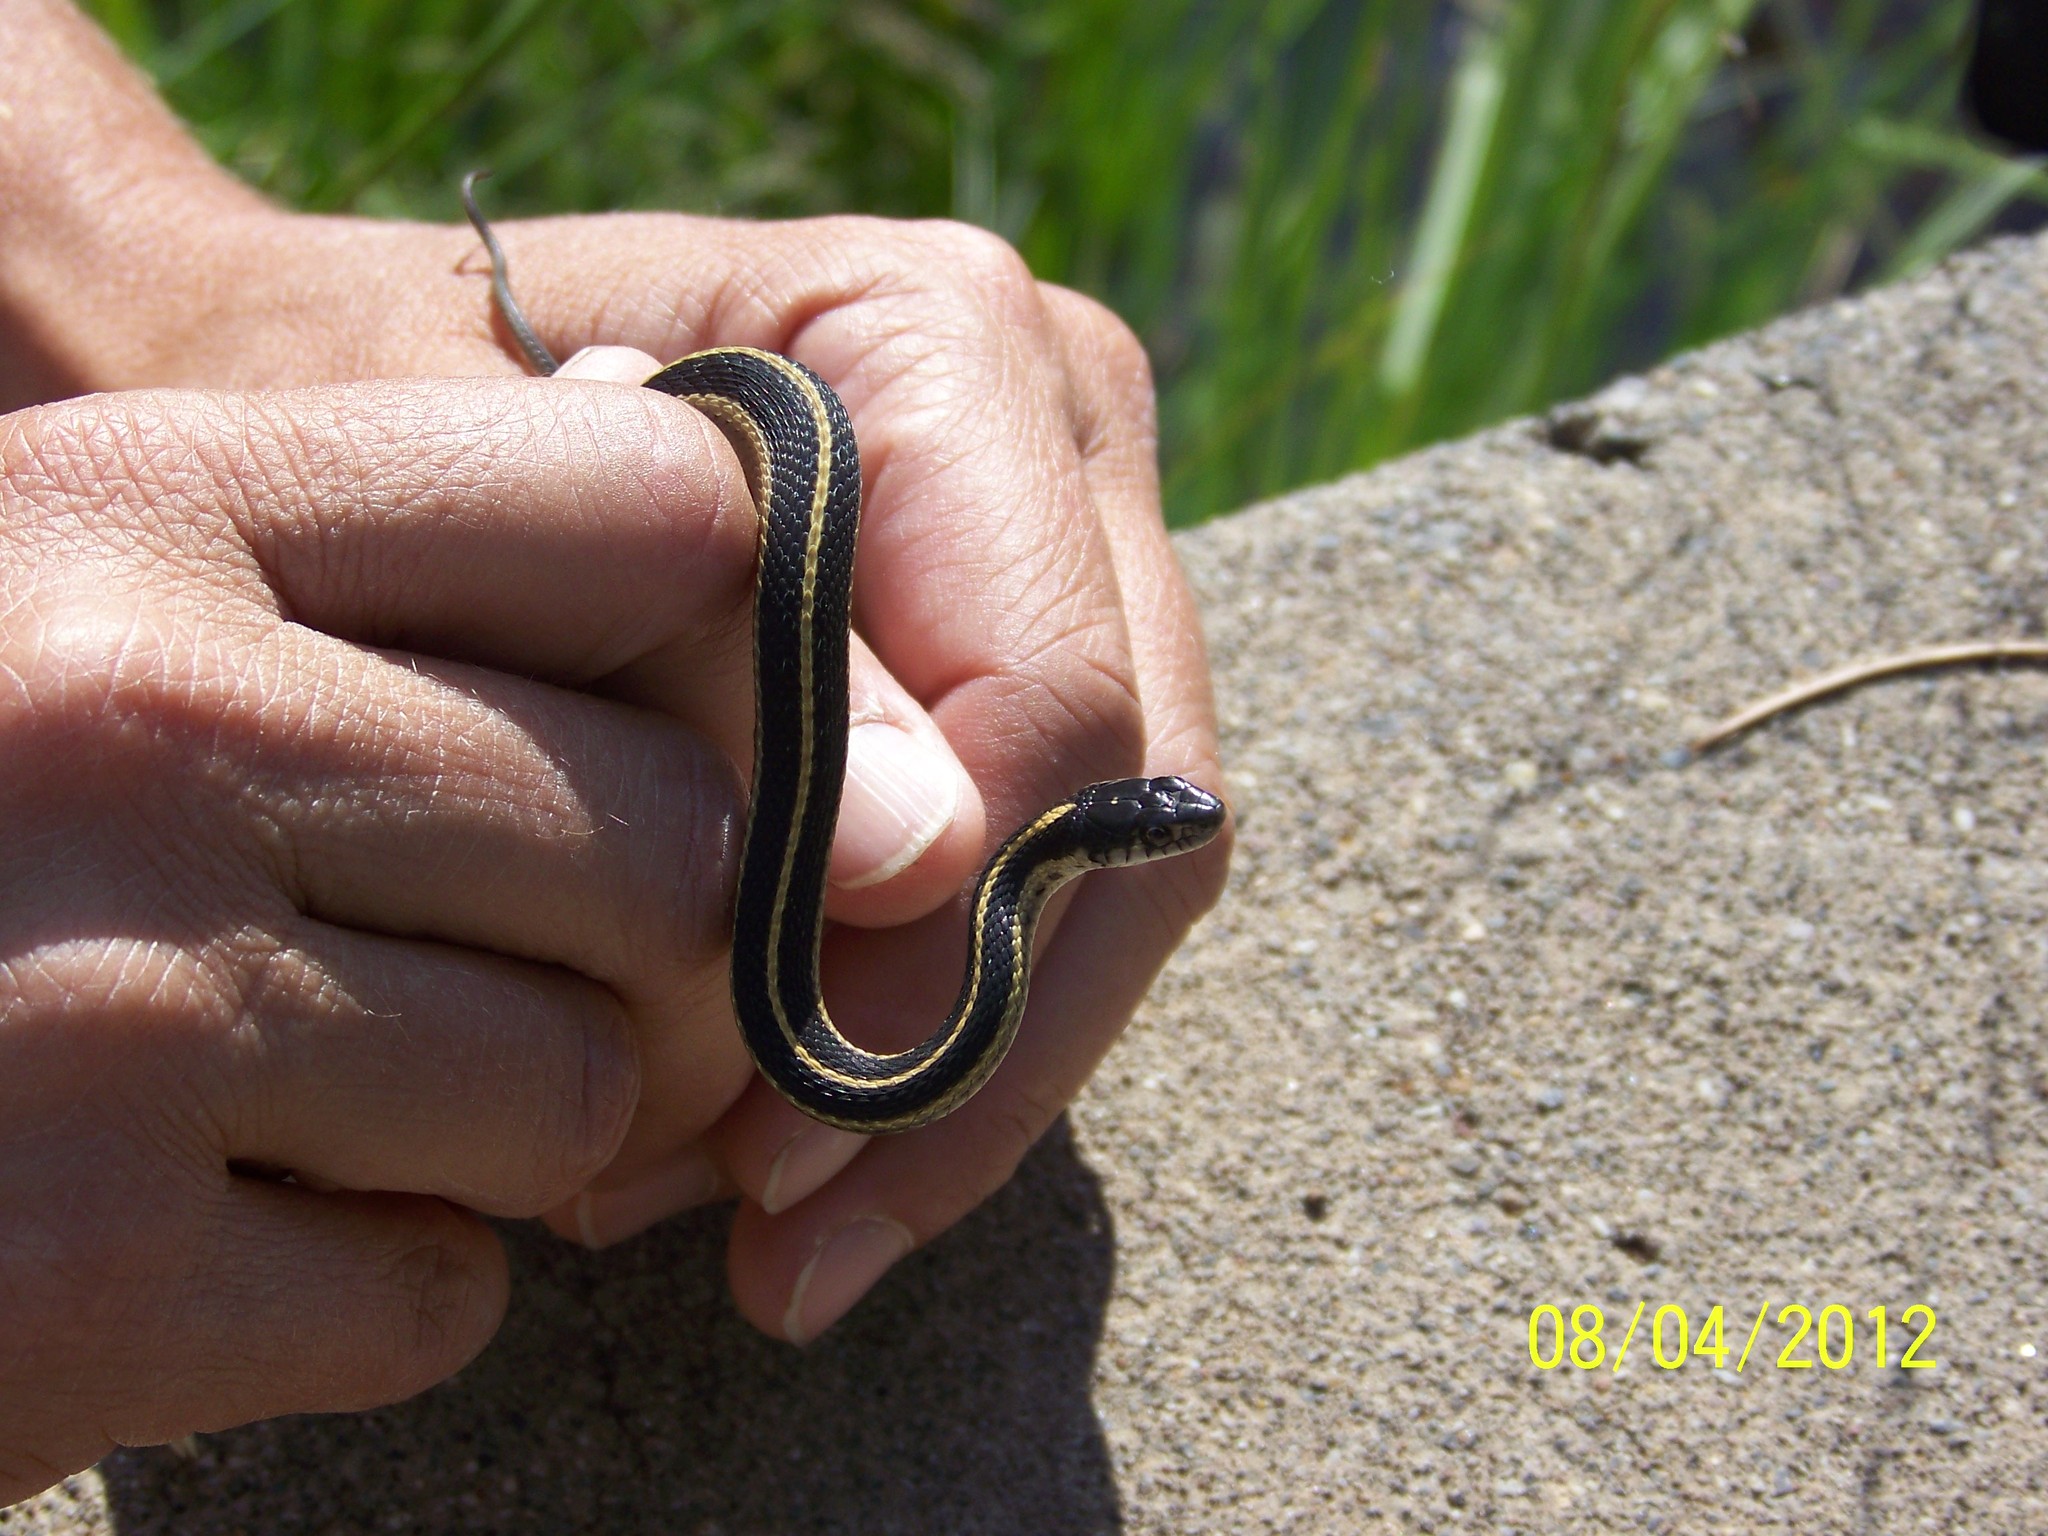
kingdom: Animalia
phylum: Chordata
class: Squamata
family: Colubridae
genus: Thamnophis
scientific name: Thamnophis elegans
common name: Western terrestrial garter snake
